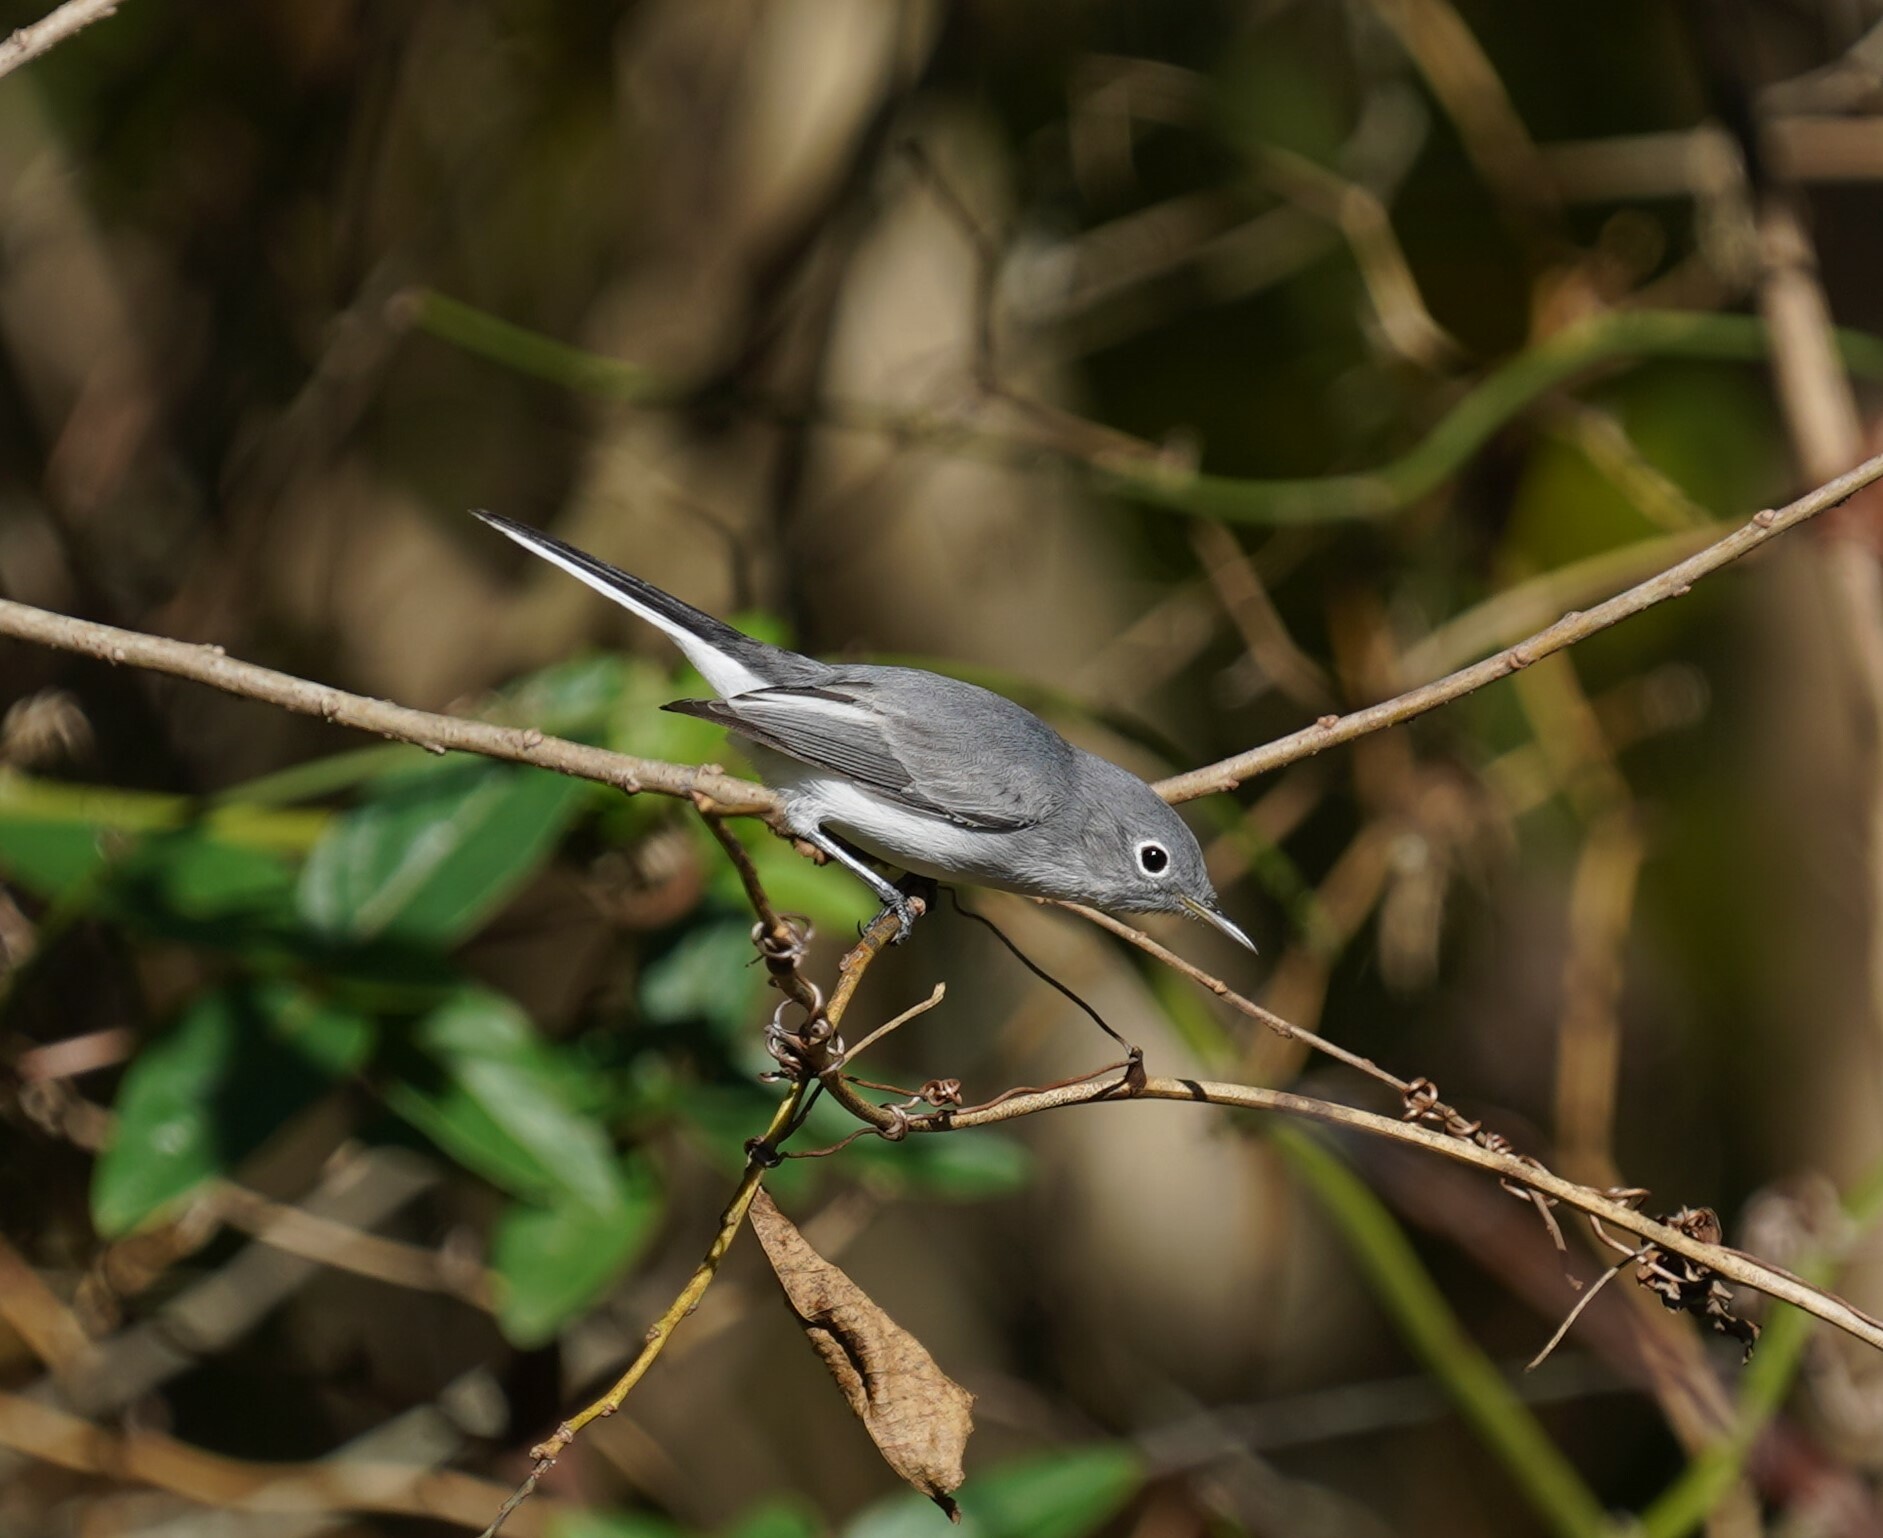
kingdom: Animalia
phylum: Chordata
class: Aves
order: Passeriformes
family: Polioptilidae
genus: Polioptila
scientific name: Polioptila caerulea
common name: Blue-gray gnatcatcher
